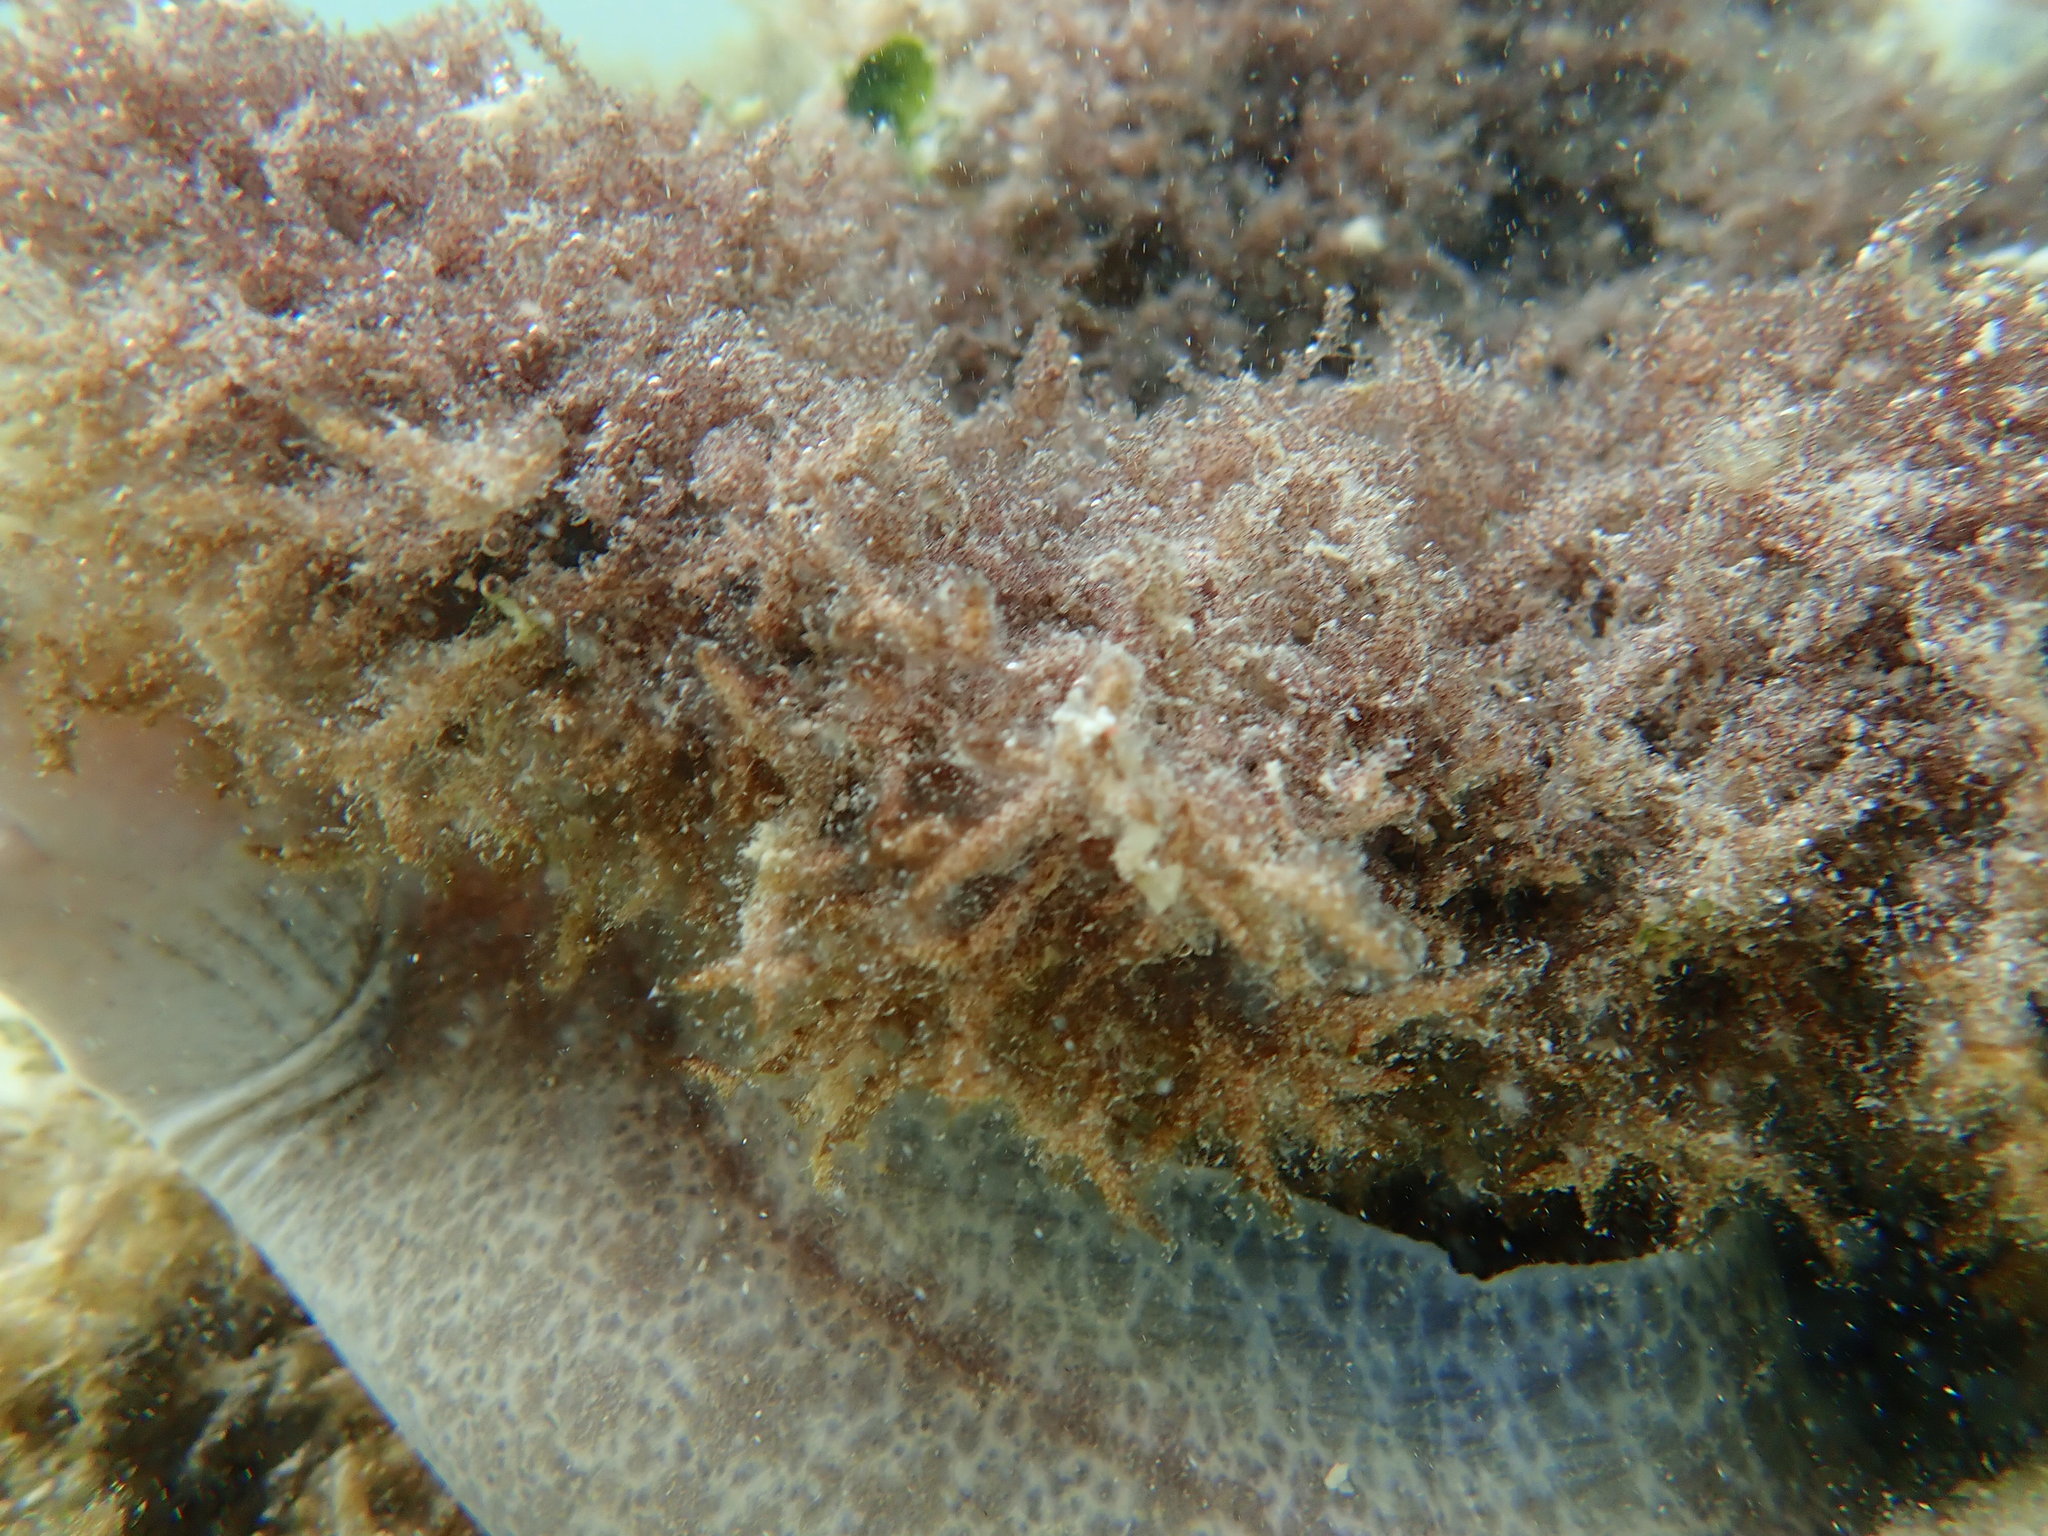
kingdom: Animalia
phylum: Chordata
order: Anguilliformes
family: Muraenidae
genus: Gymnothorax
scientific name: Gymnothorax cribroris
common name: Australian moray
